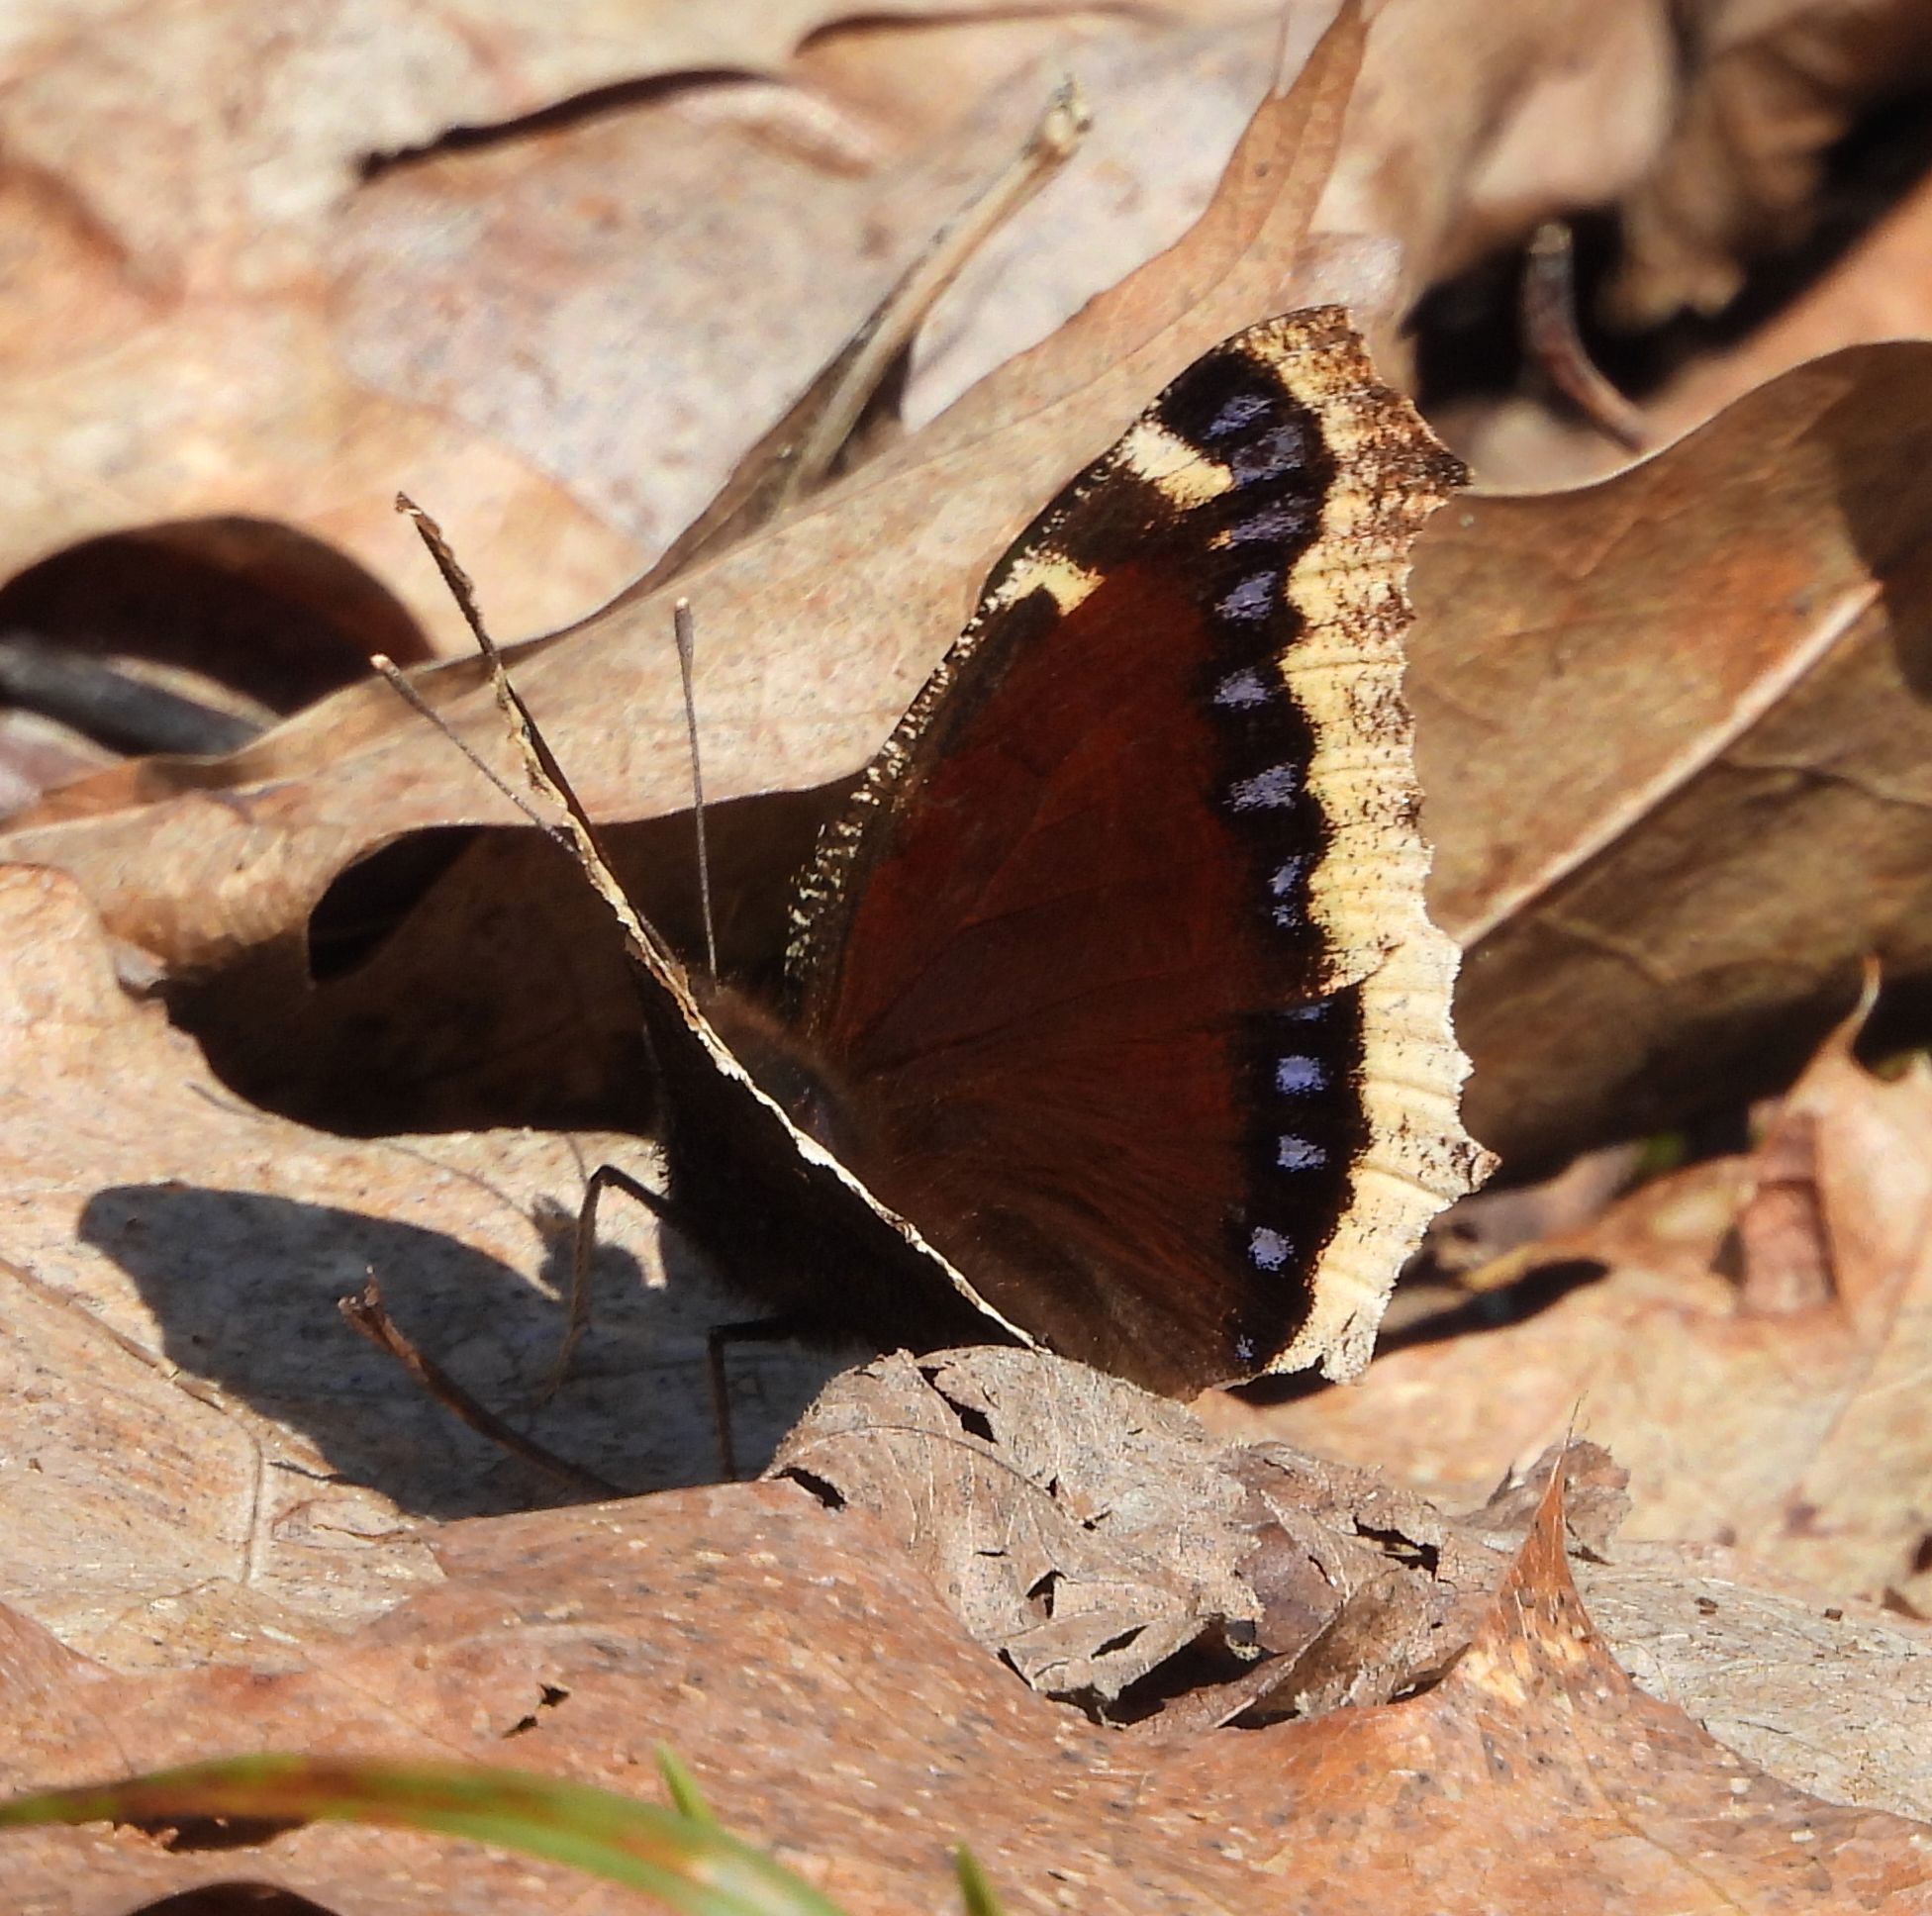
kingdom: Animalia
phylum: Arthropoda
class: Insecta
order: Lepidoptera
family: Nymphalidae
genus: Nymphalis
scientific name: Nymphalis antiopa
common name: Camberwell beauty
